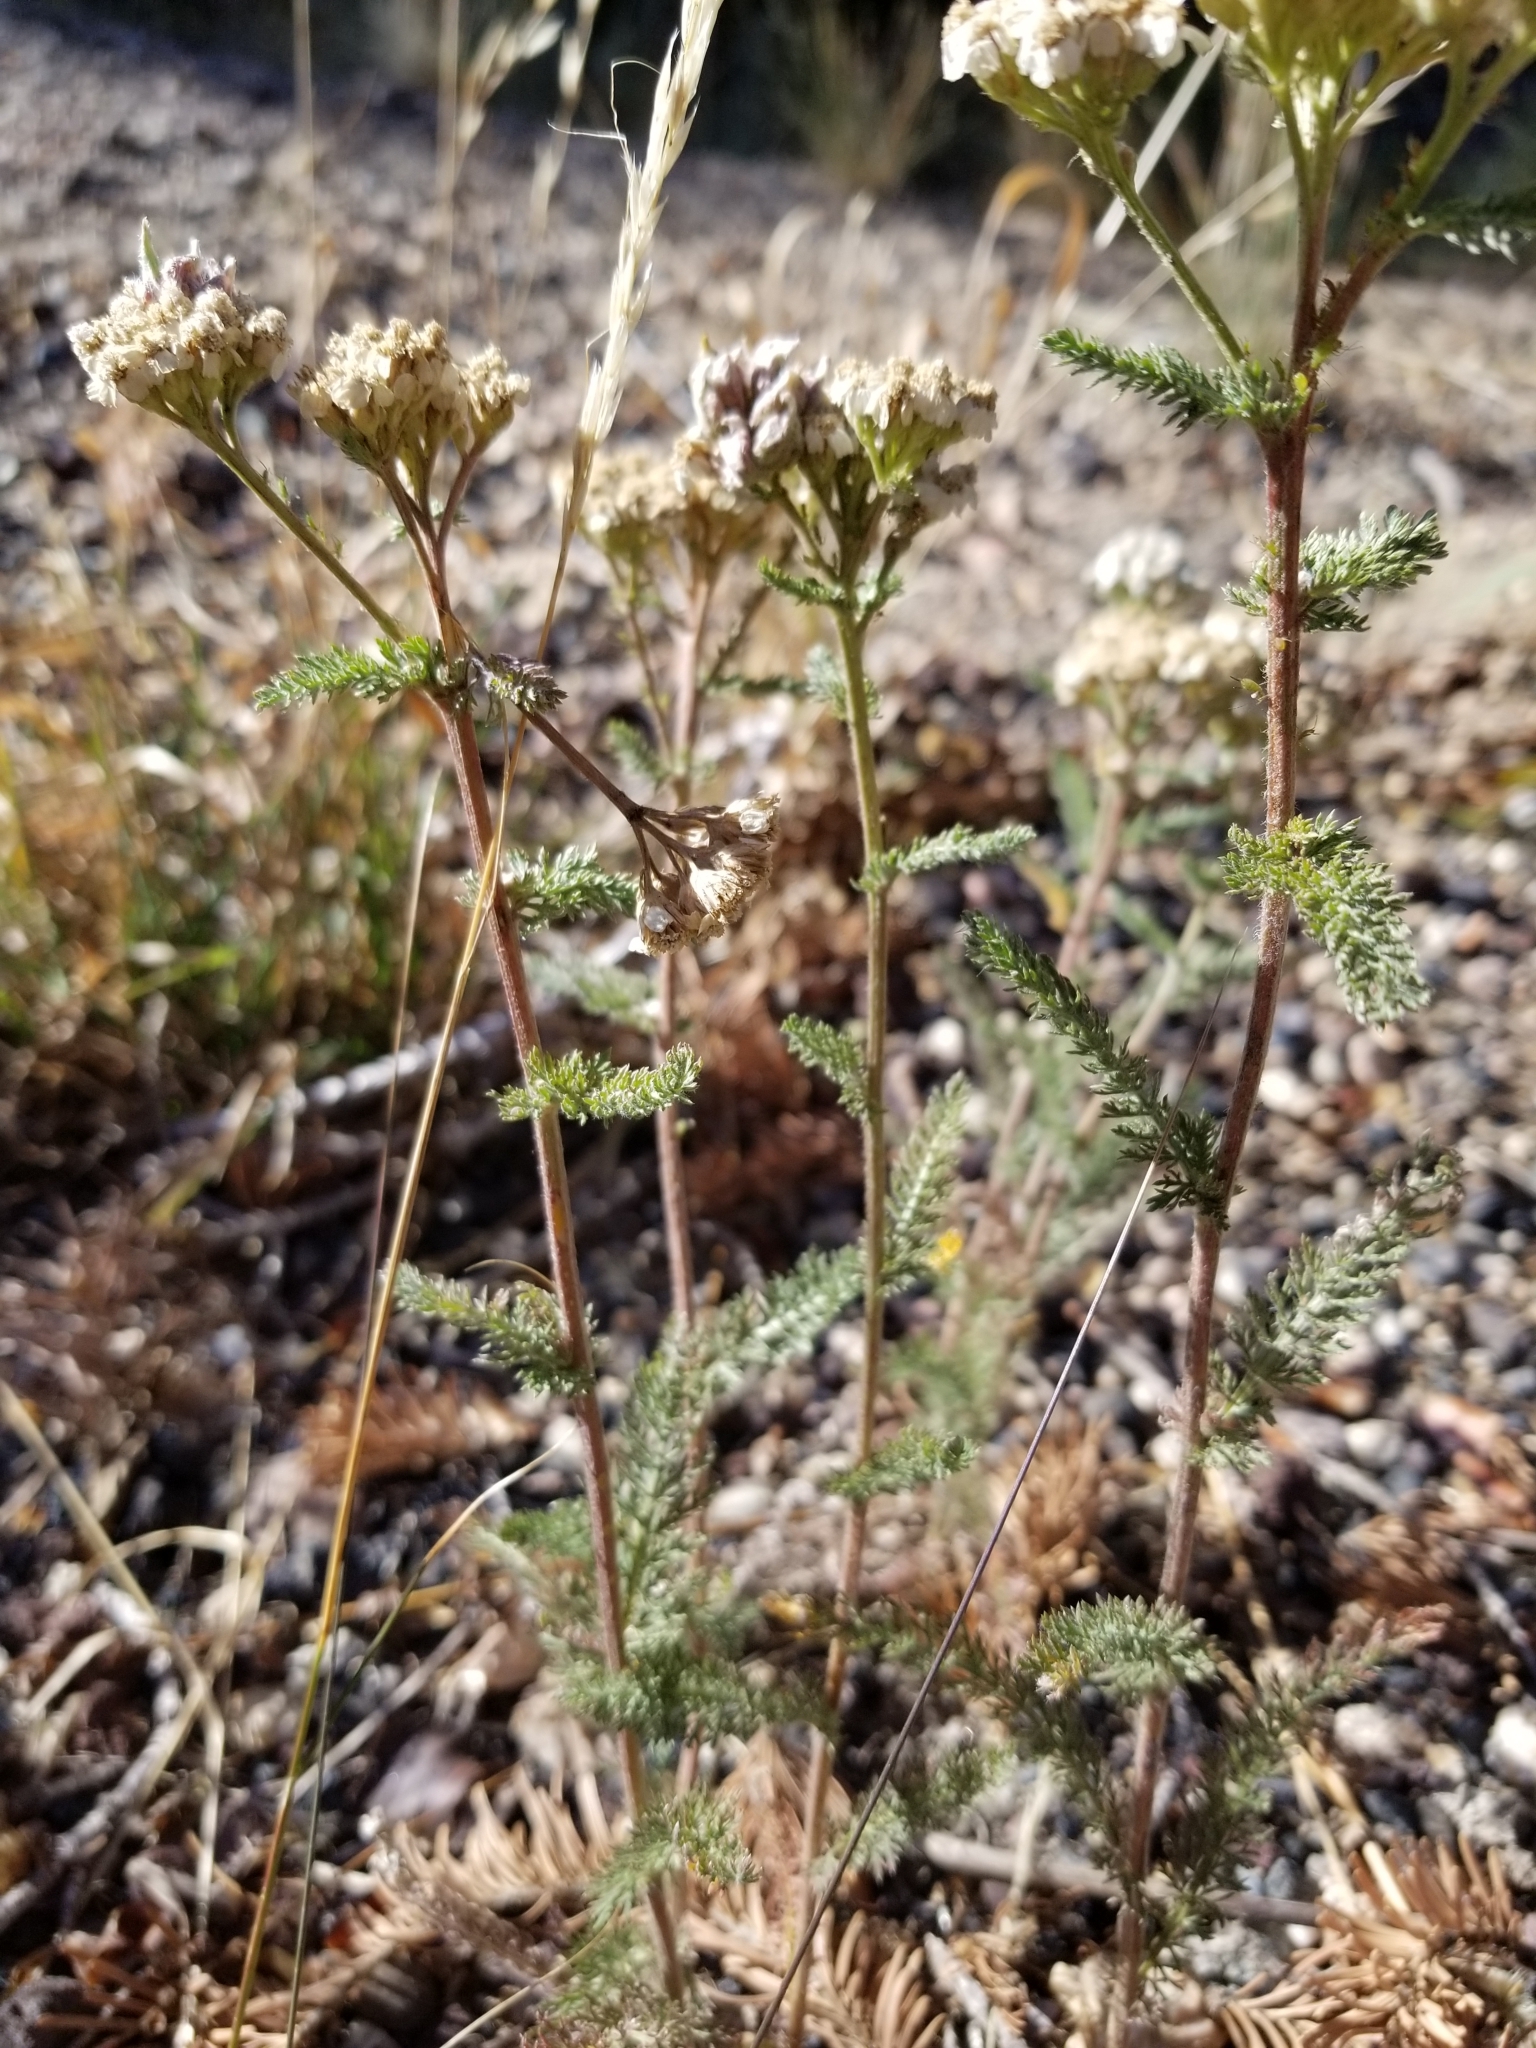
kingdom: Plantae
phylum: Tracheophyta
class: Magnoliopsida
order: Asterales
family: Asteraceae
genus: Achillea
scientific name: Achillea millefolium
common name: Yarrow
